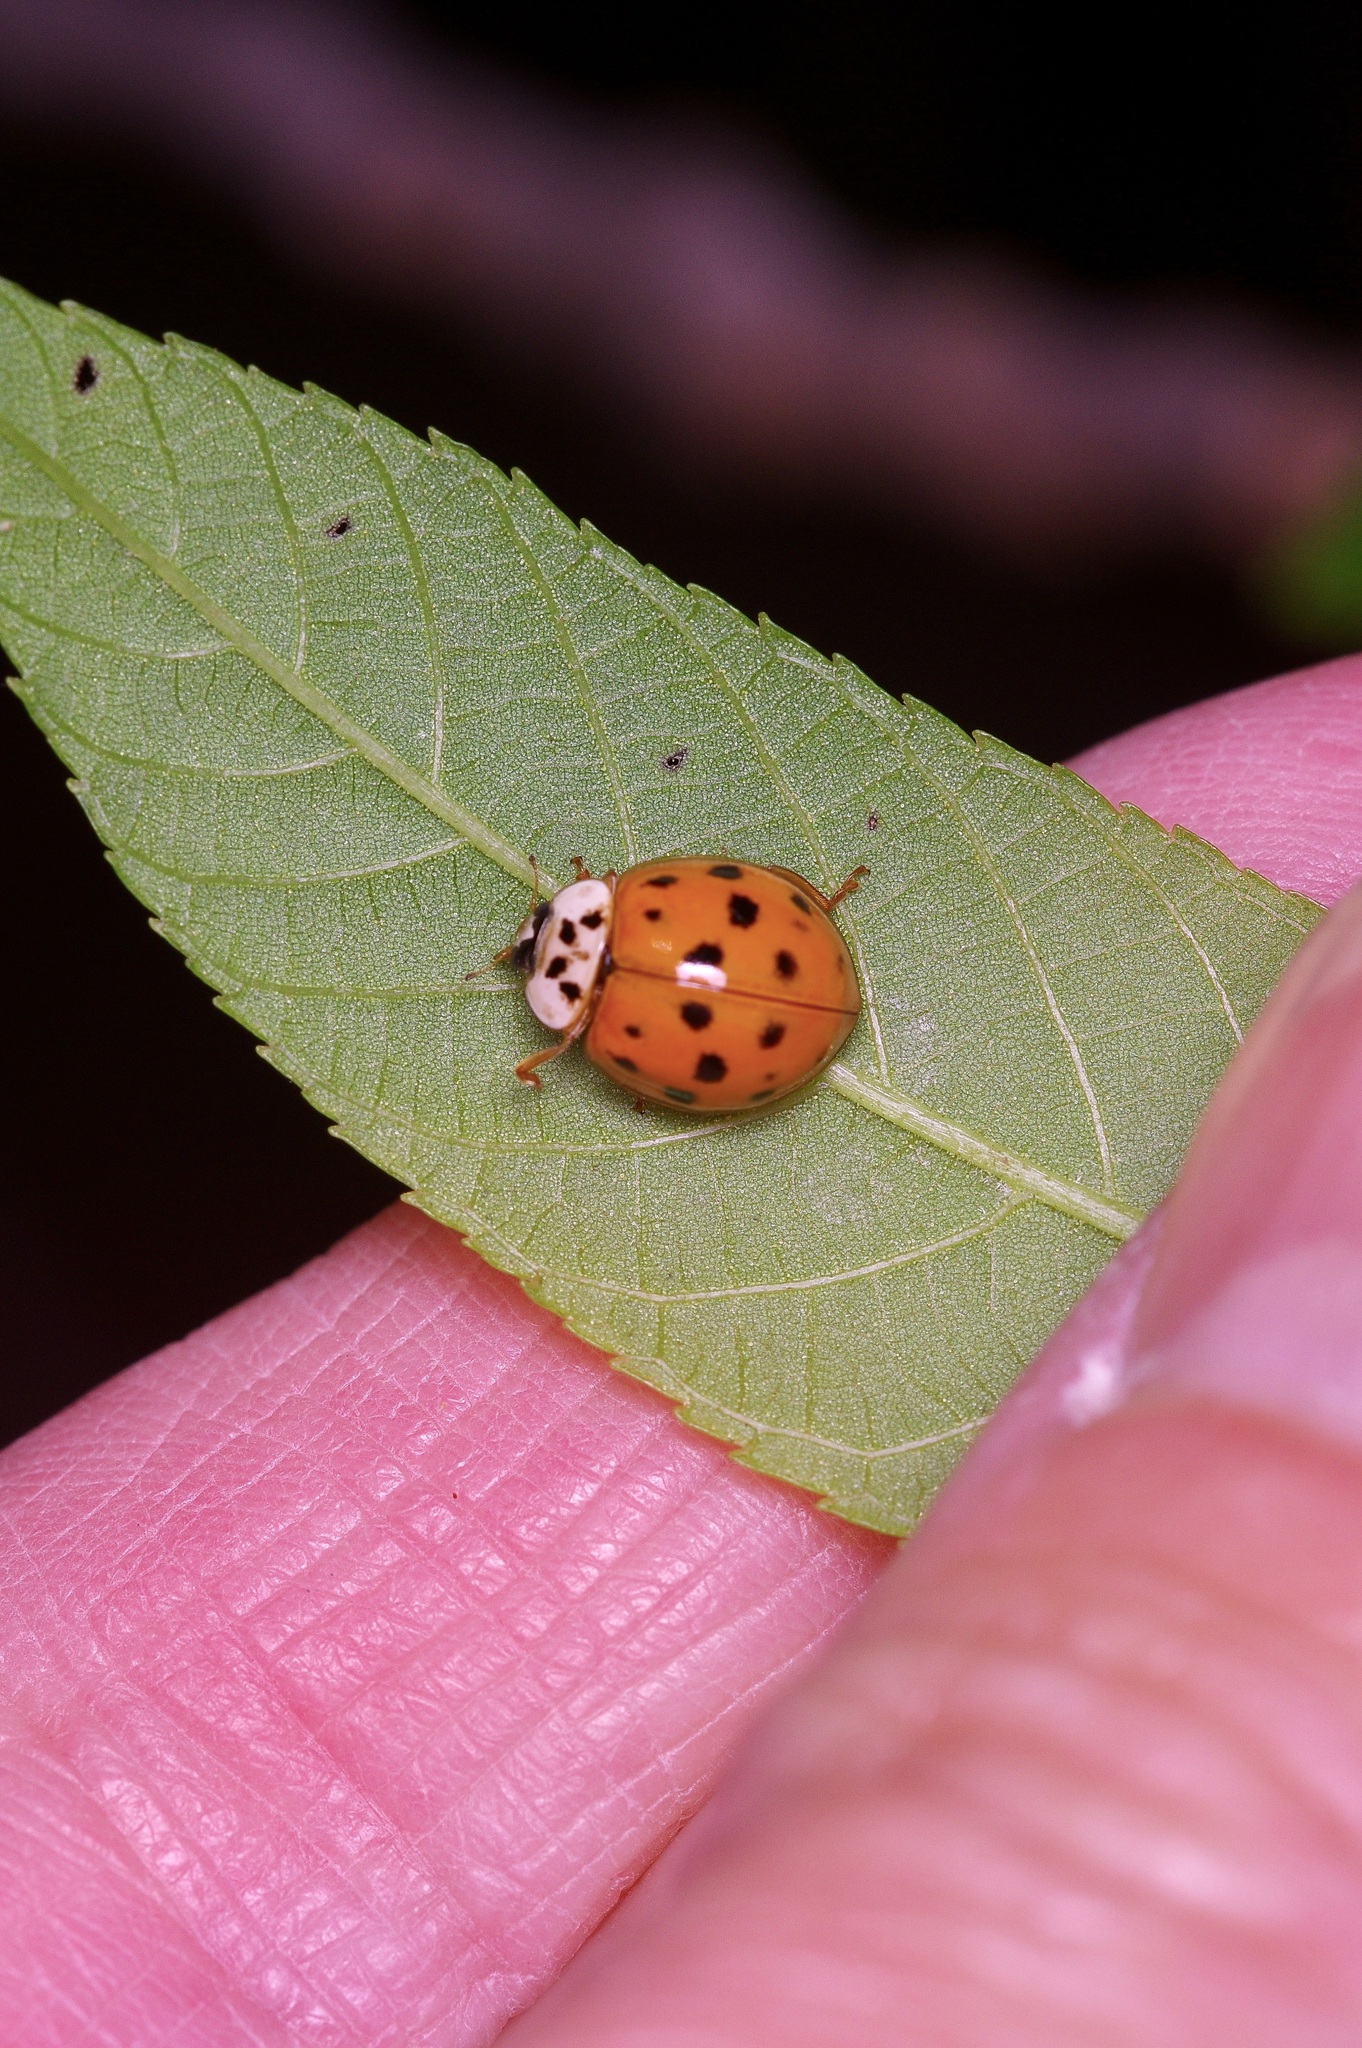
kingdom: Animalia
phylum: Arthropoda
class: Insecta
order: Coleoptera
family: Coccinellidae
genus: Harmonia
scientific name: Harmonia axyridis
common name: Harlequin ladybird
